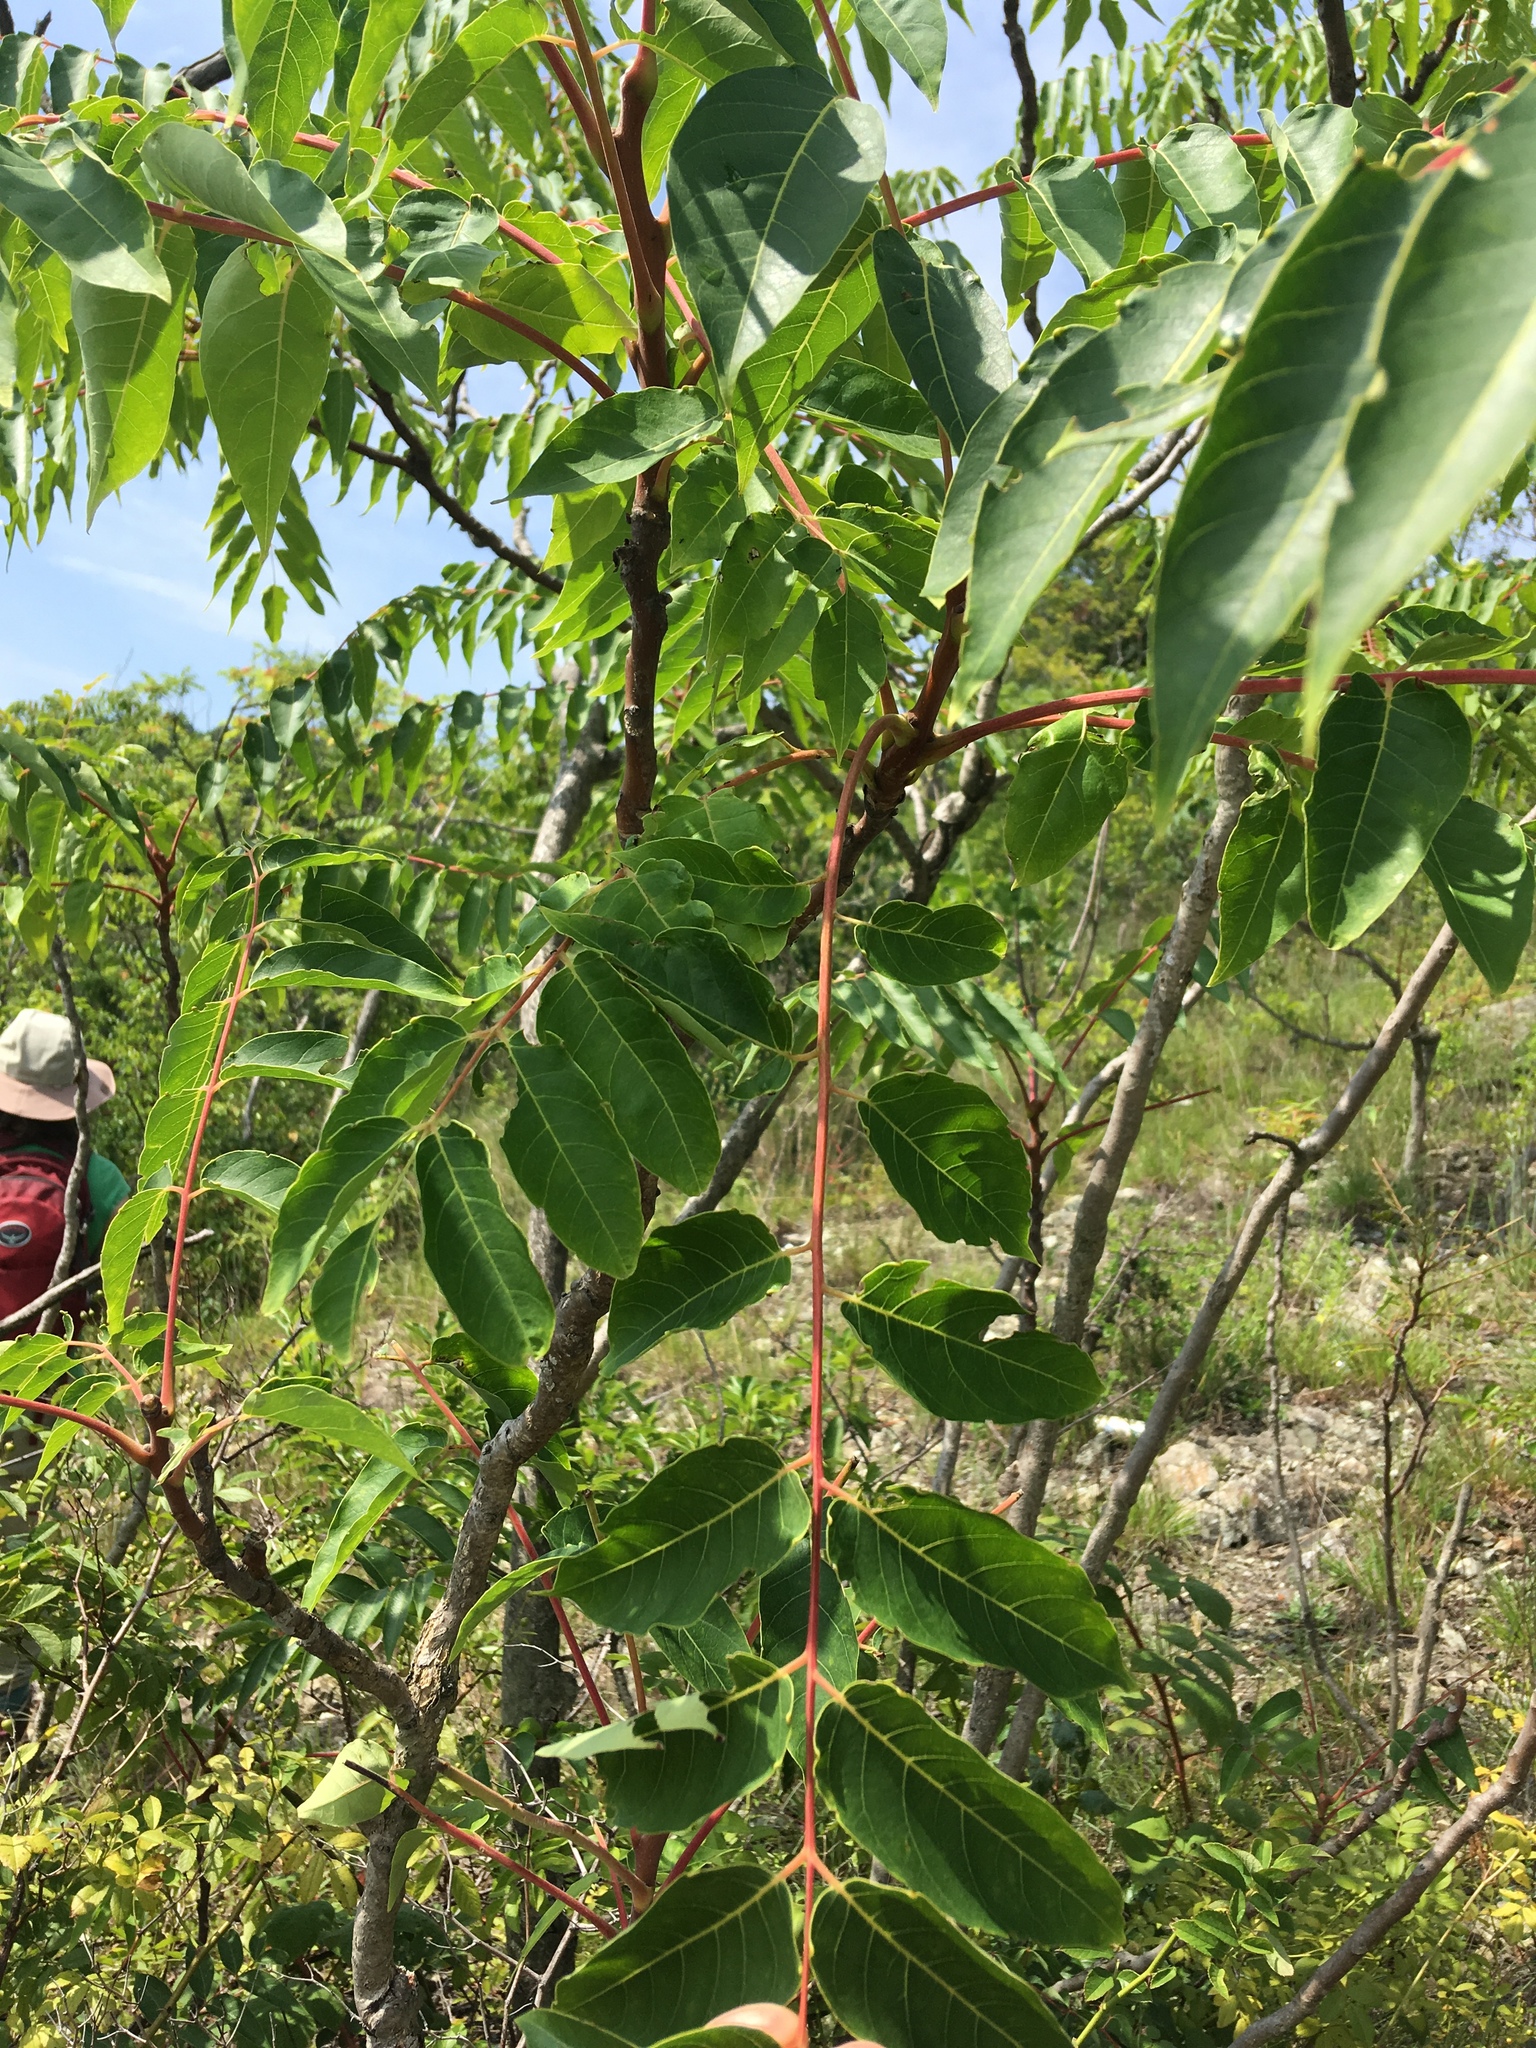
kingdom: Plantae
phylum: Tracheophyta
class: Magnoliopsida
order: Sapindales
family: Simaroubaceae
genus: Ailanthus
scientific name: Ailanthus altissima
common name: Tree-of-heaven
